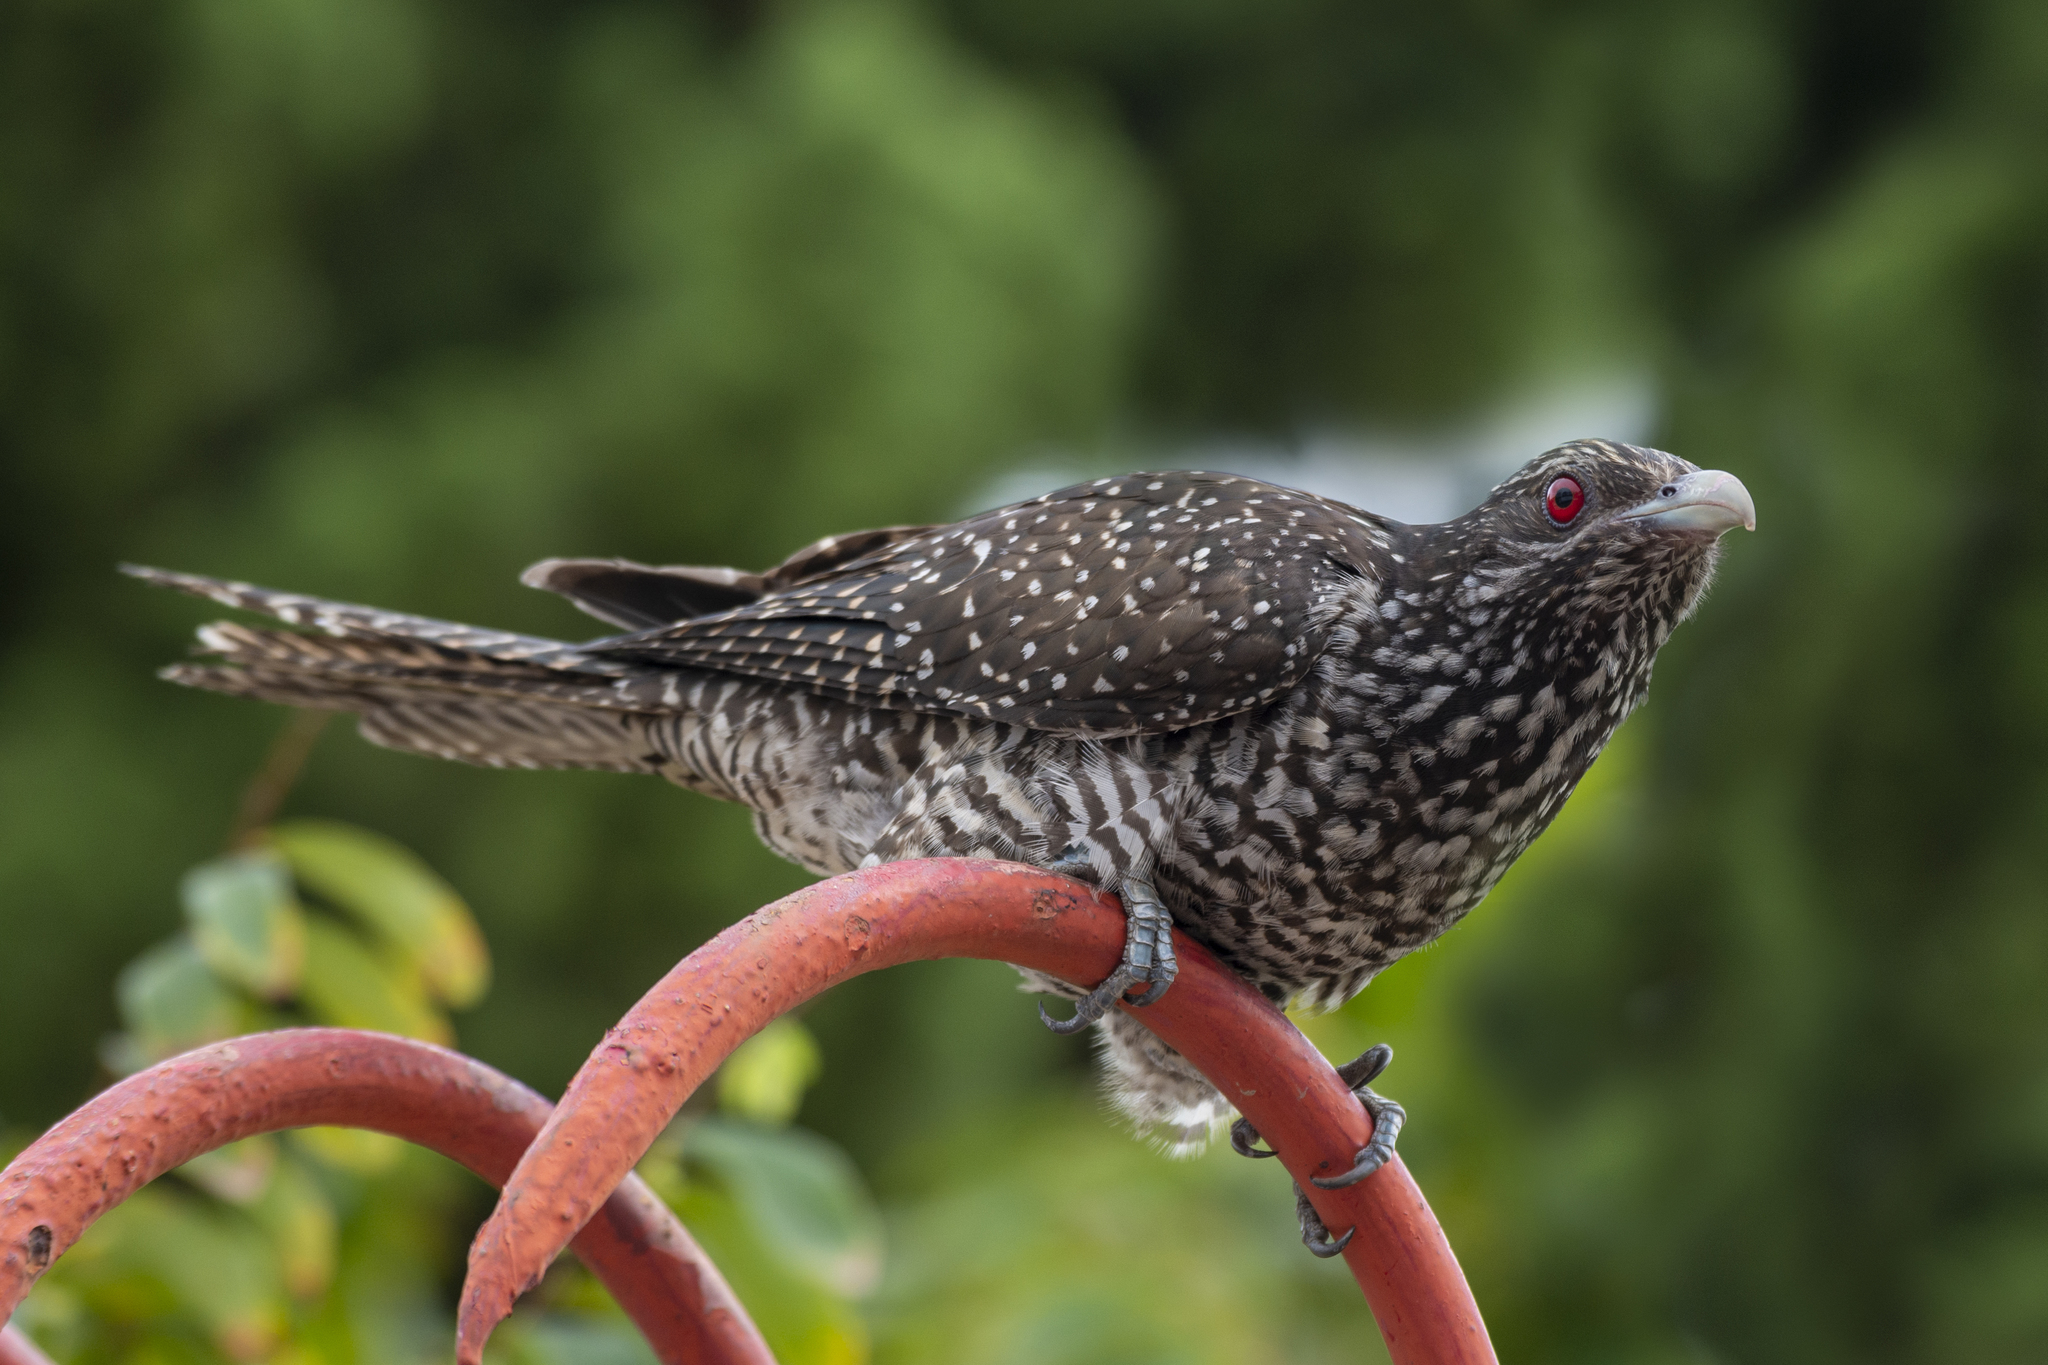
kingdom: Animalia
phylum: Chordata
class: Aves
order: Cuculiformes
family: Cuculidae
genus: Eudynamys
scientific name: Eudynamys scolopaceus
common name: Asian koel
